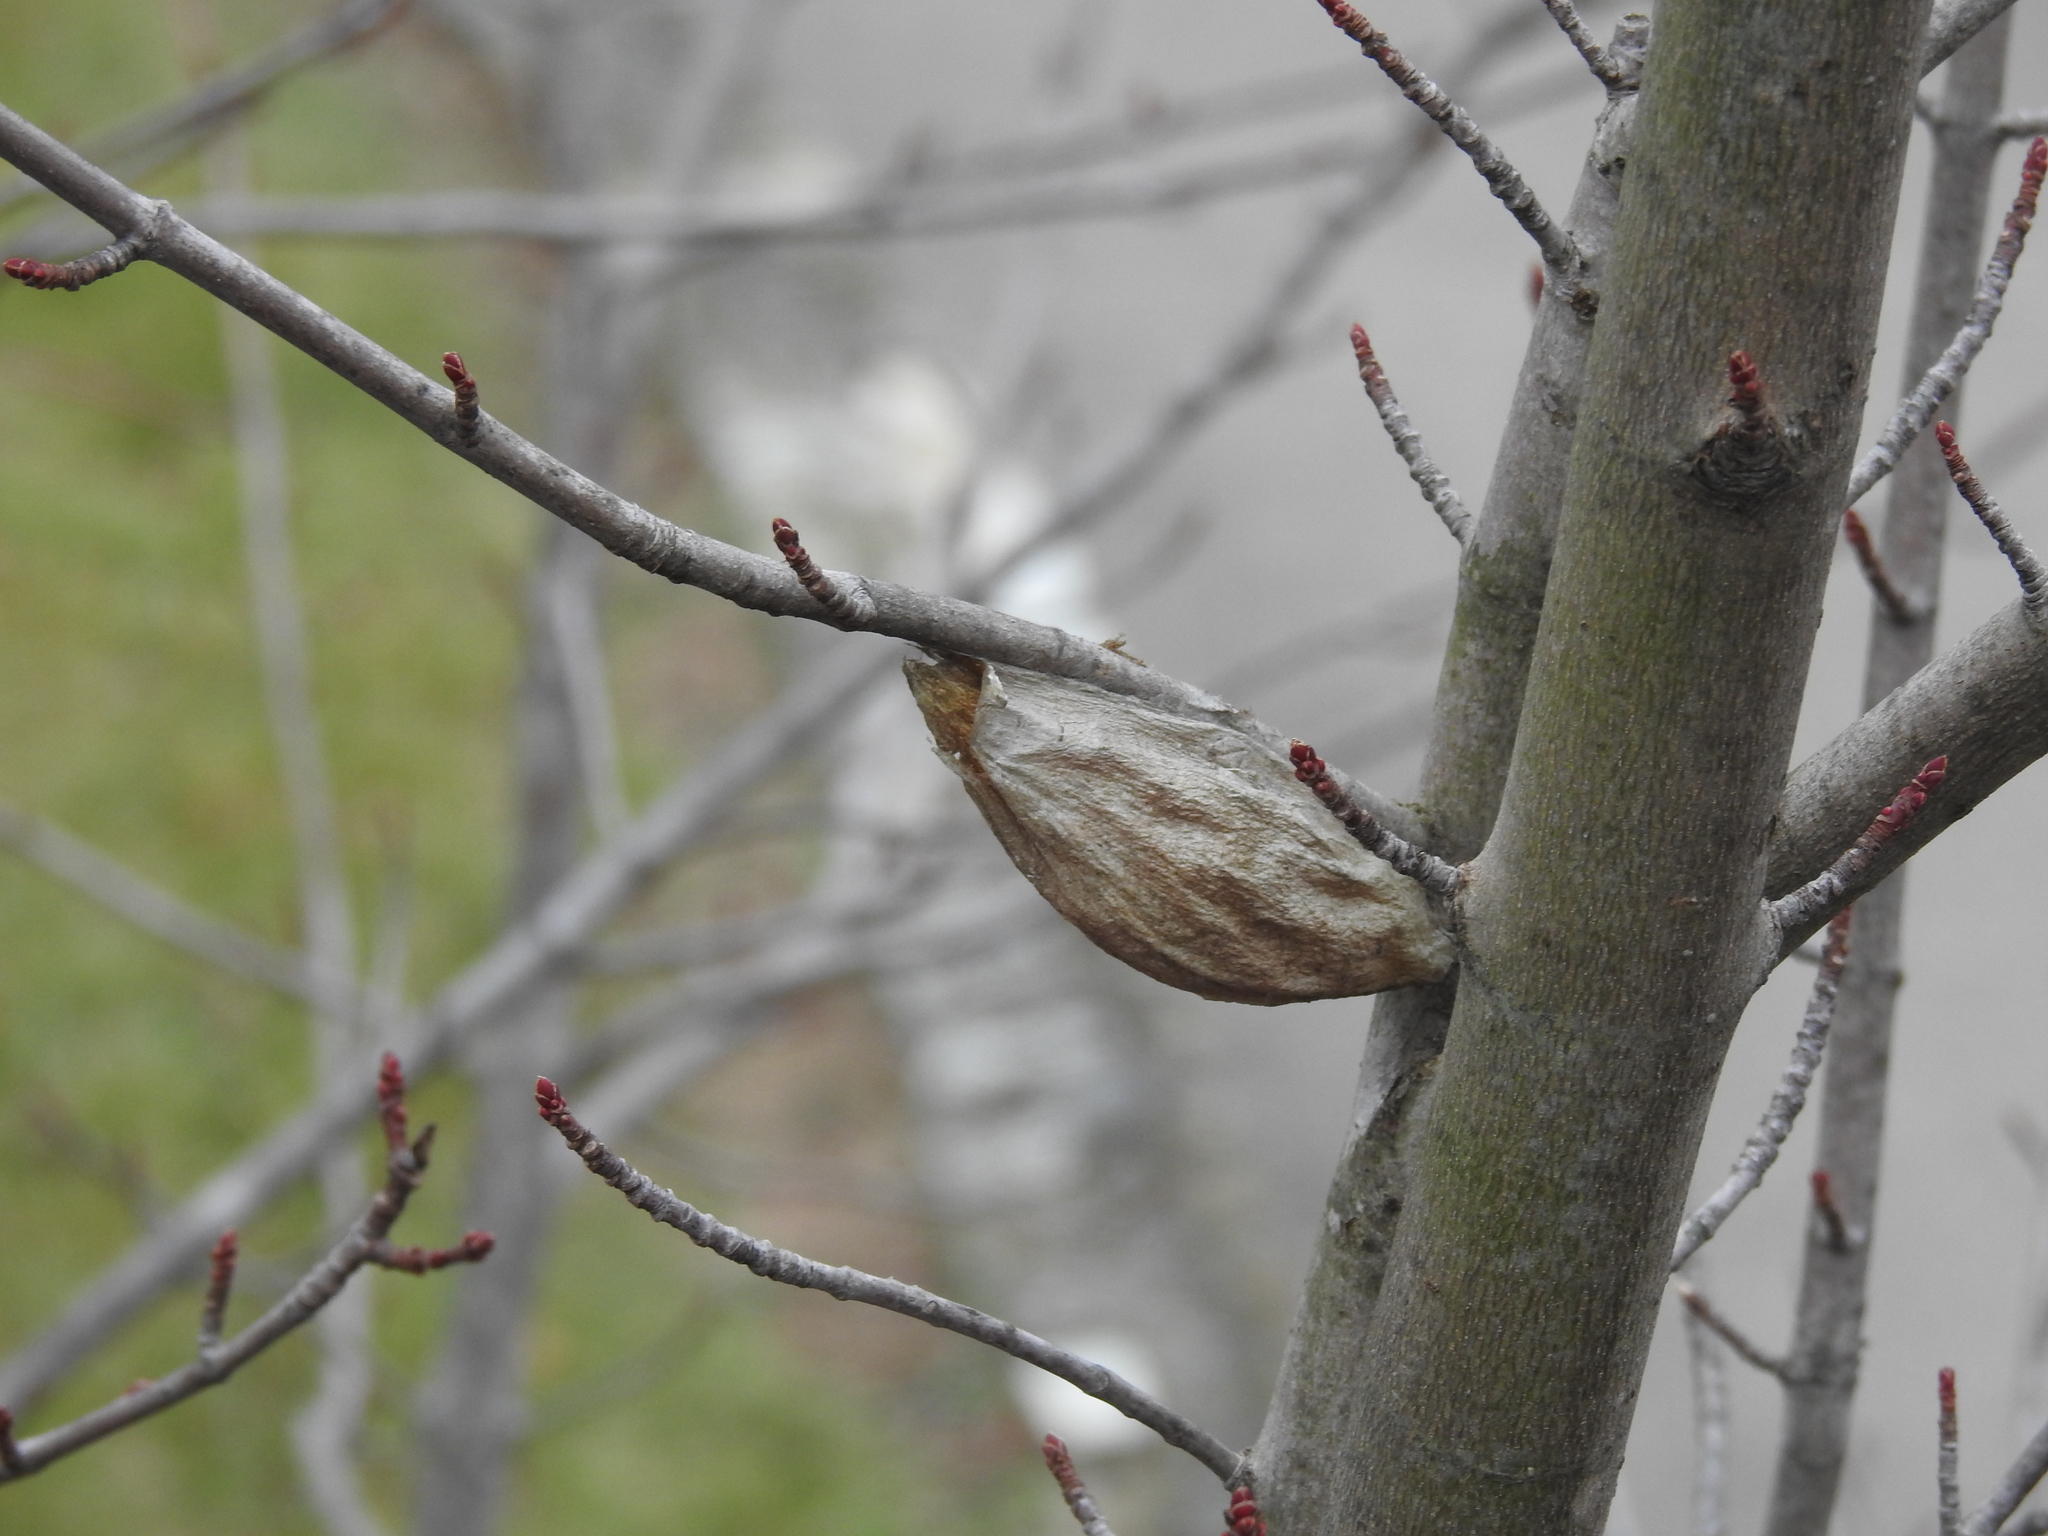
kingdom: Animalia
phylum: Arthropoda
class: Insecta
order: Lepidoptera
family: Saturniidae
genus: Hyalophora
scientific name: Hyalophora cecropia
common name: Cecropia silkmoth
